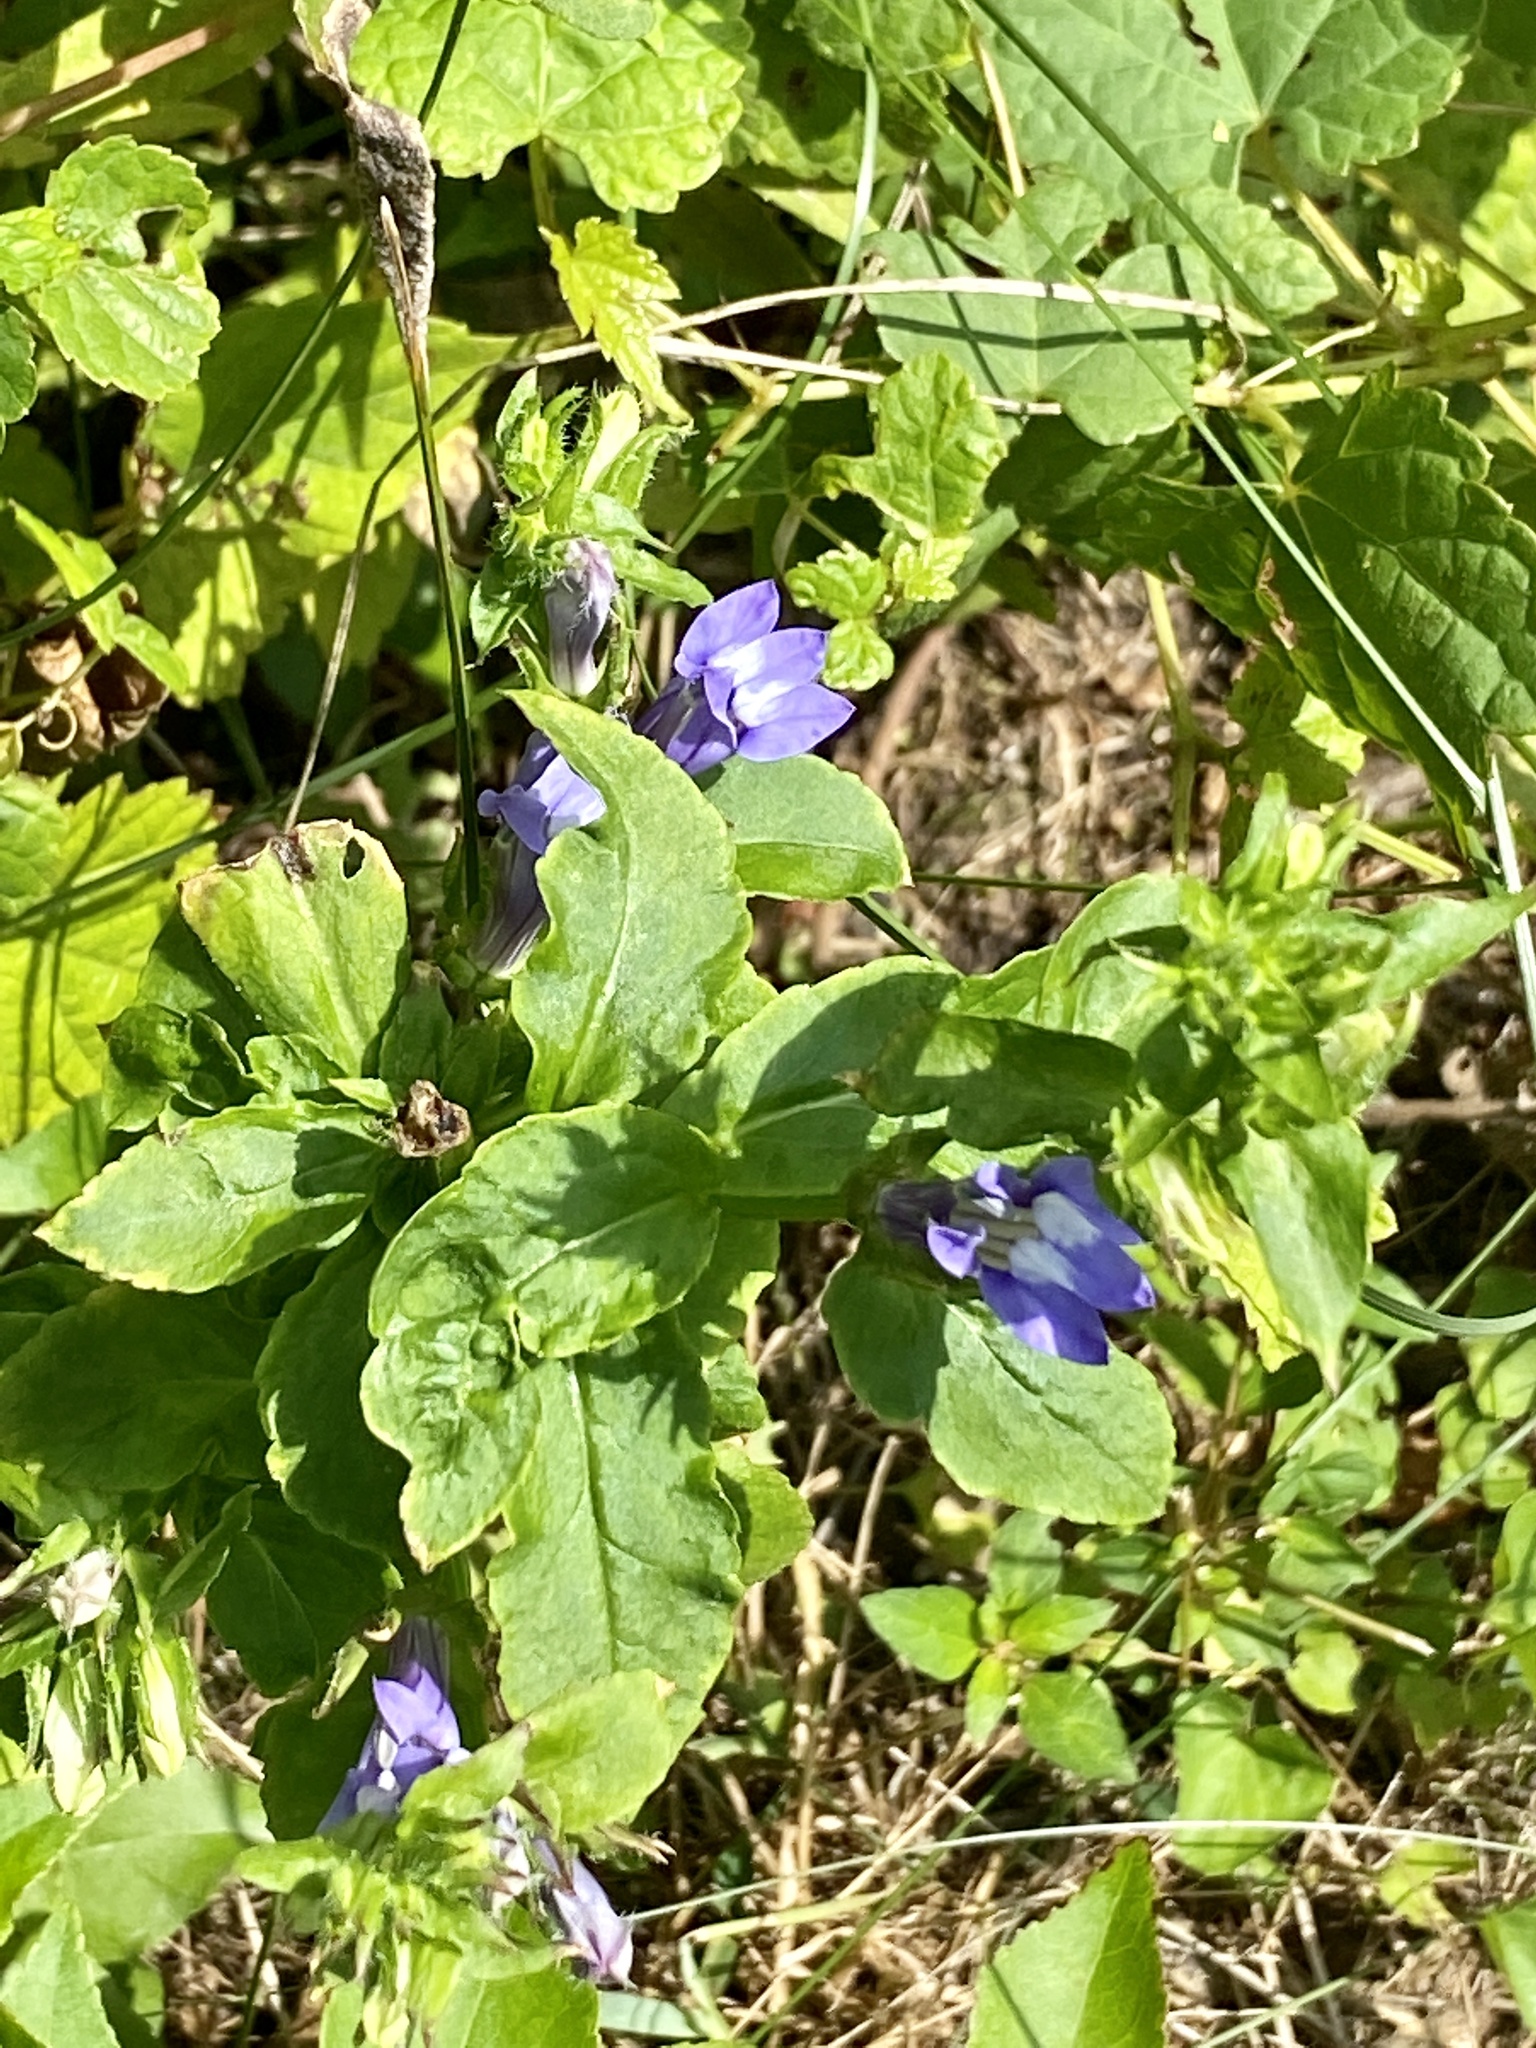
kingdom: Plantae
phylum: Tracheophyta
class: Magnoliopsida
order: Asterales
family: Campanulaceae
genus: Lobelia
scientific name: Lobelia siphilitica
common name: Great lobelia
